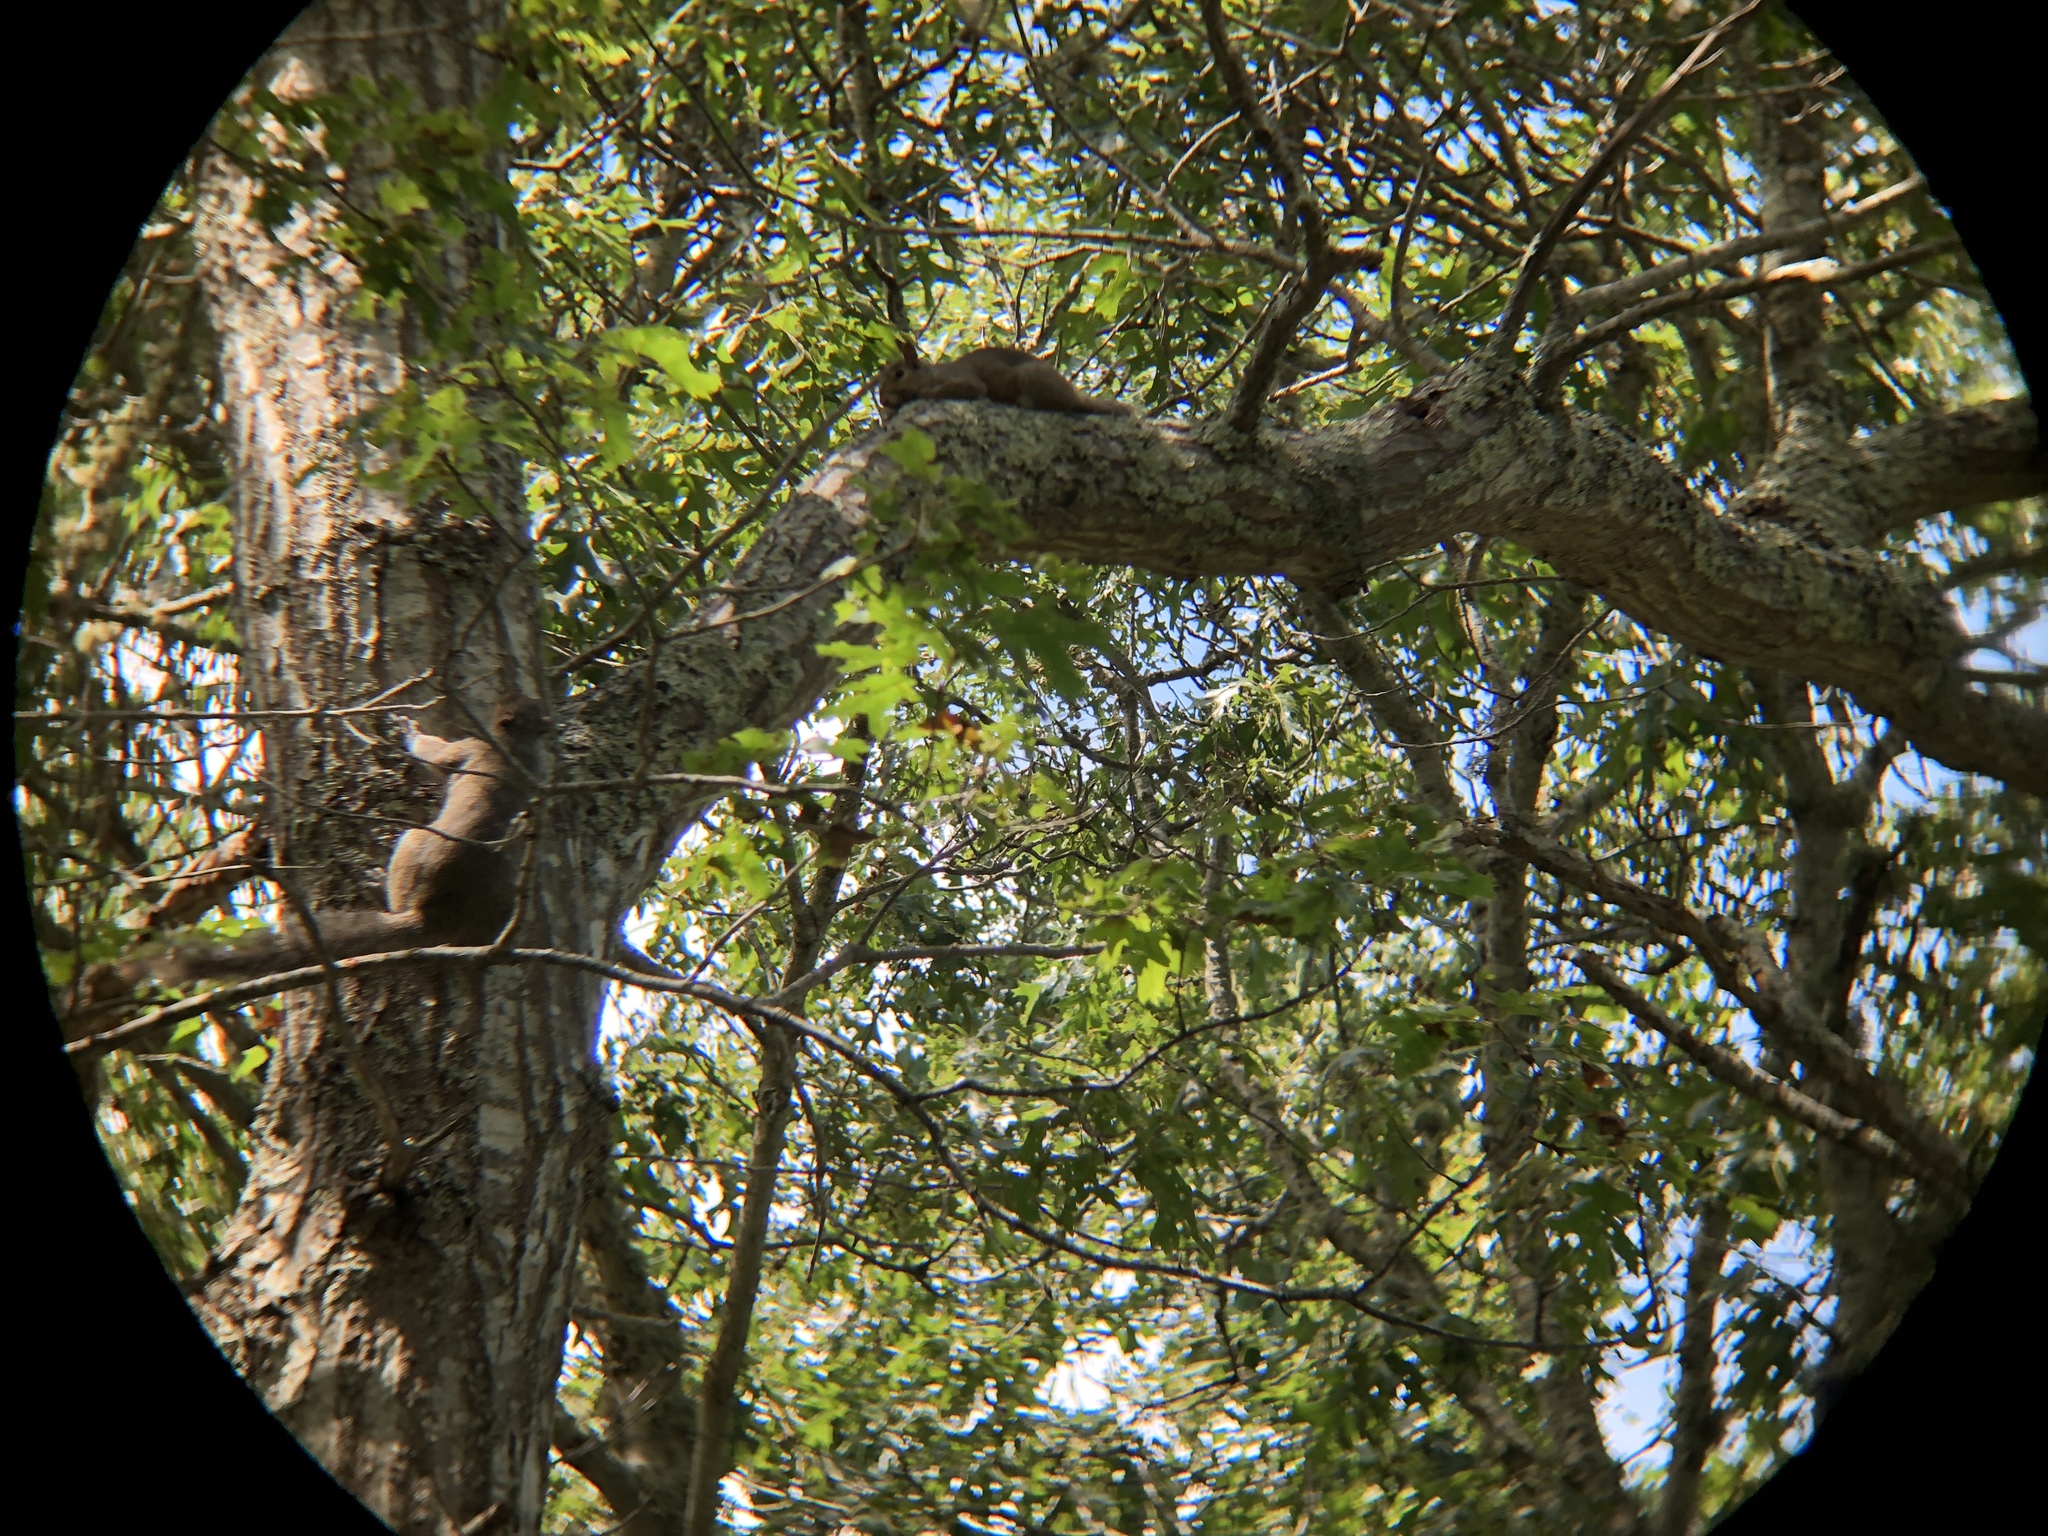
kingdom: Animalia
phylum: Chordata
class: Mammalia
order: Rodentia
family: Sciuridae
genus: Sciurus
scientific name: Sciurus carolinensis
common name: Eastern gray squirrel
